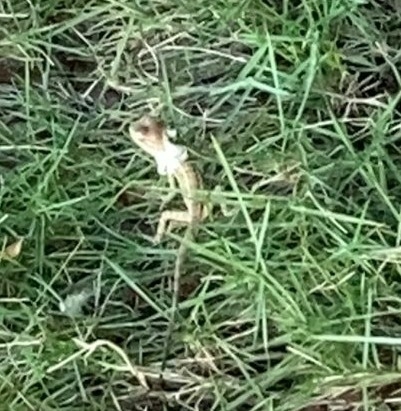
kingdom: Animalia
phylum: Chordata
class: Squamata
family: Agamidae
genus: Calotes
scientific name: Calotes versicolor
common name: Oriental garden lizard
